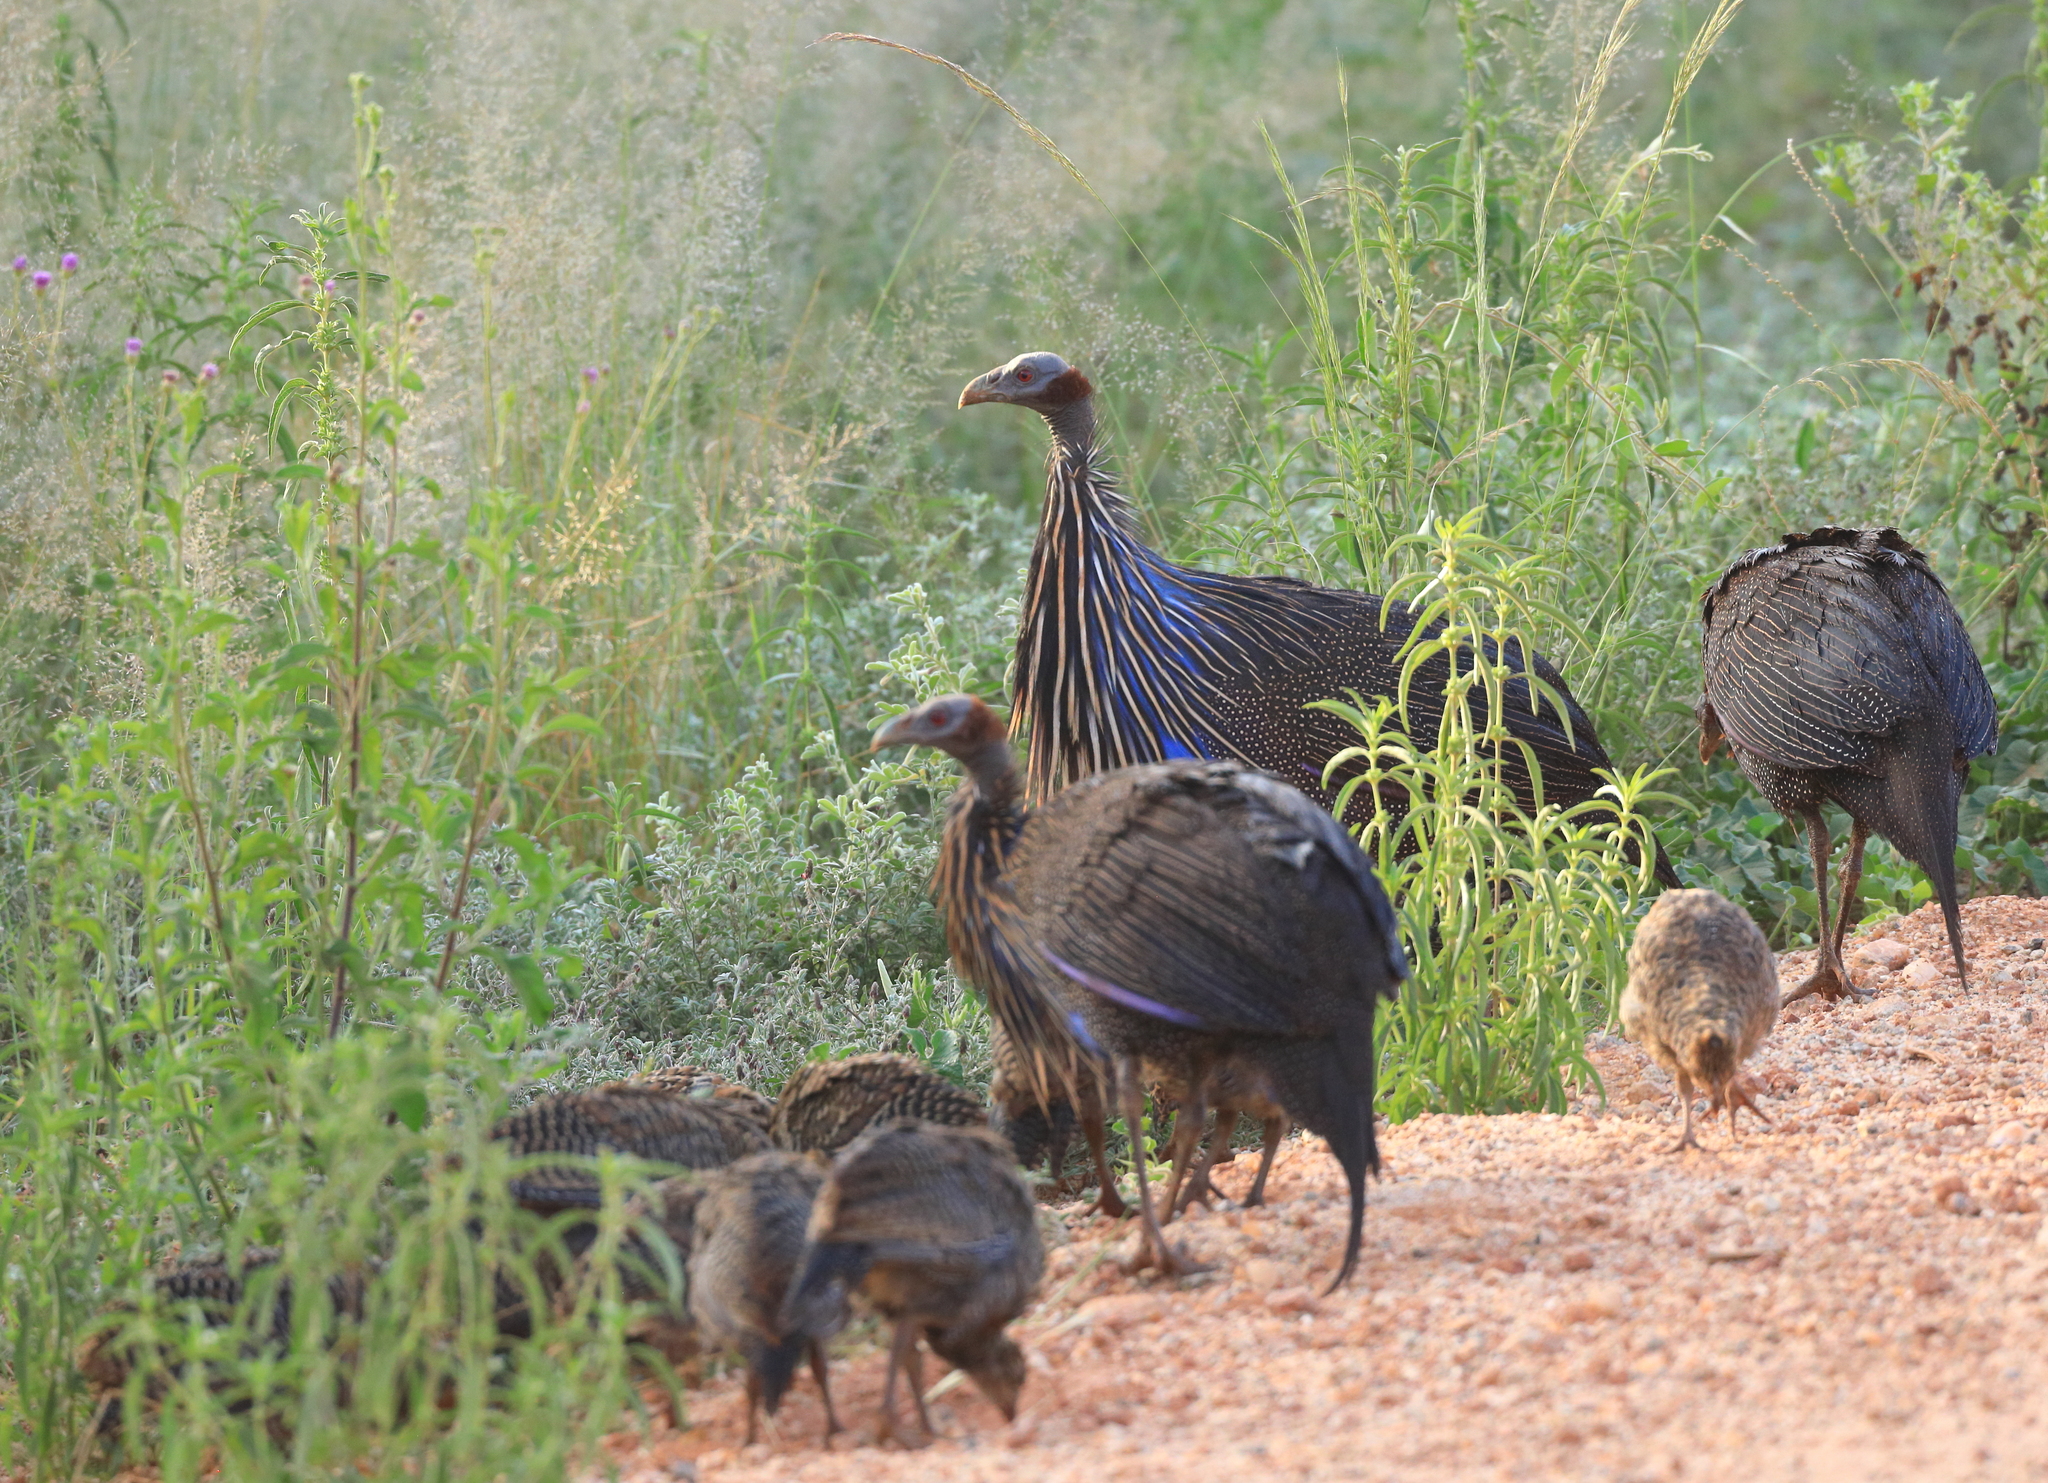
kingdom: Animalia
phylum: Chordata
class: Aves
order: Galliformes
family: Numididae
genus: Acryllium
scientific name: Acryllium vulturinum
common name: Vulturine guineafowl
